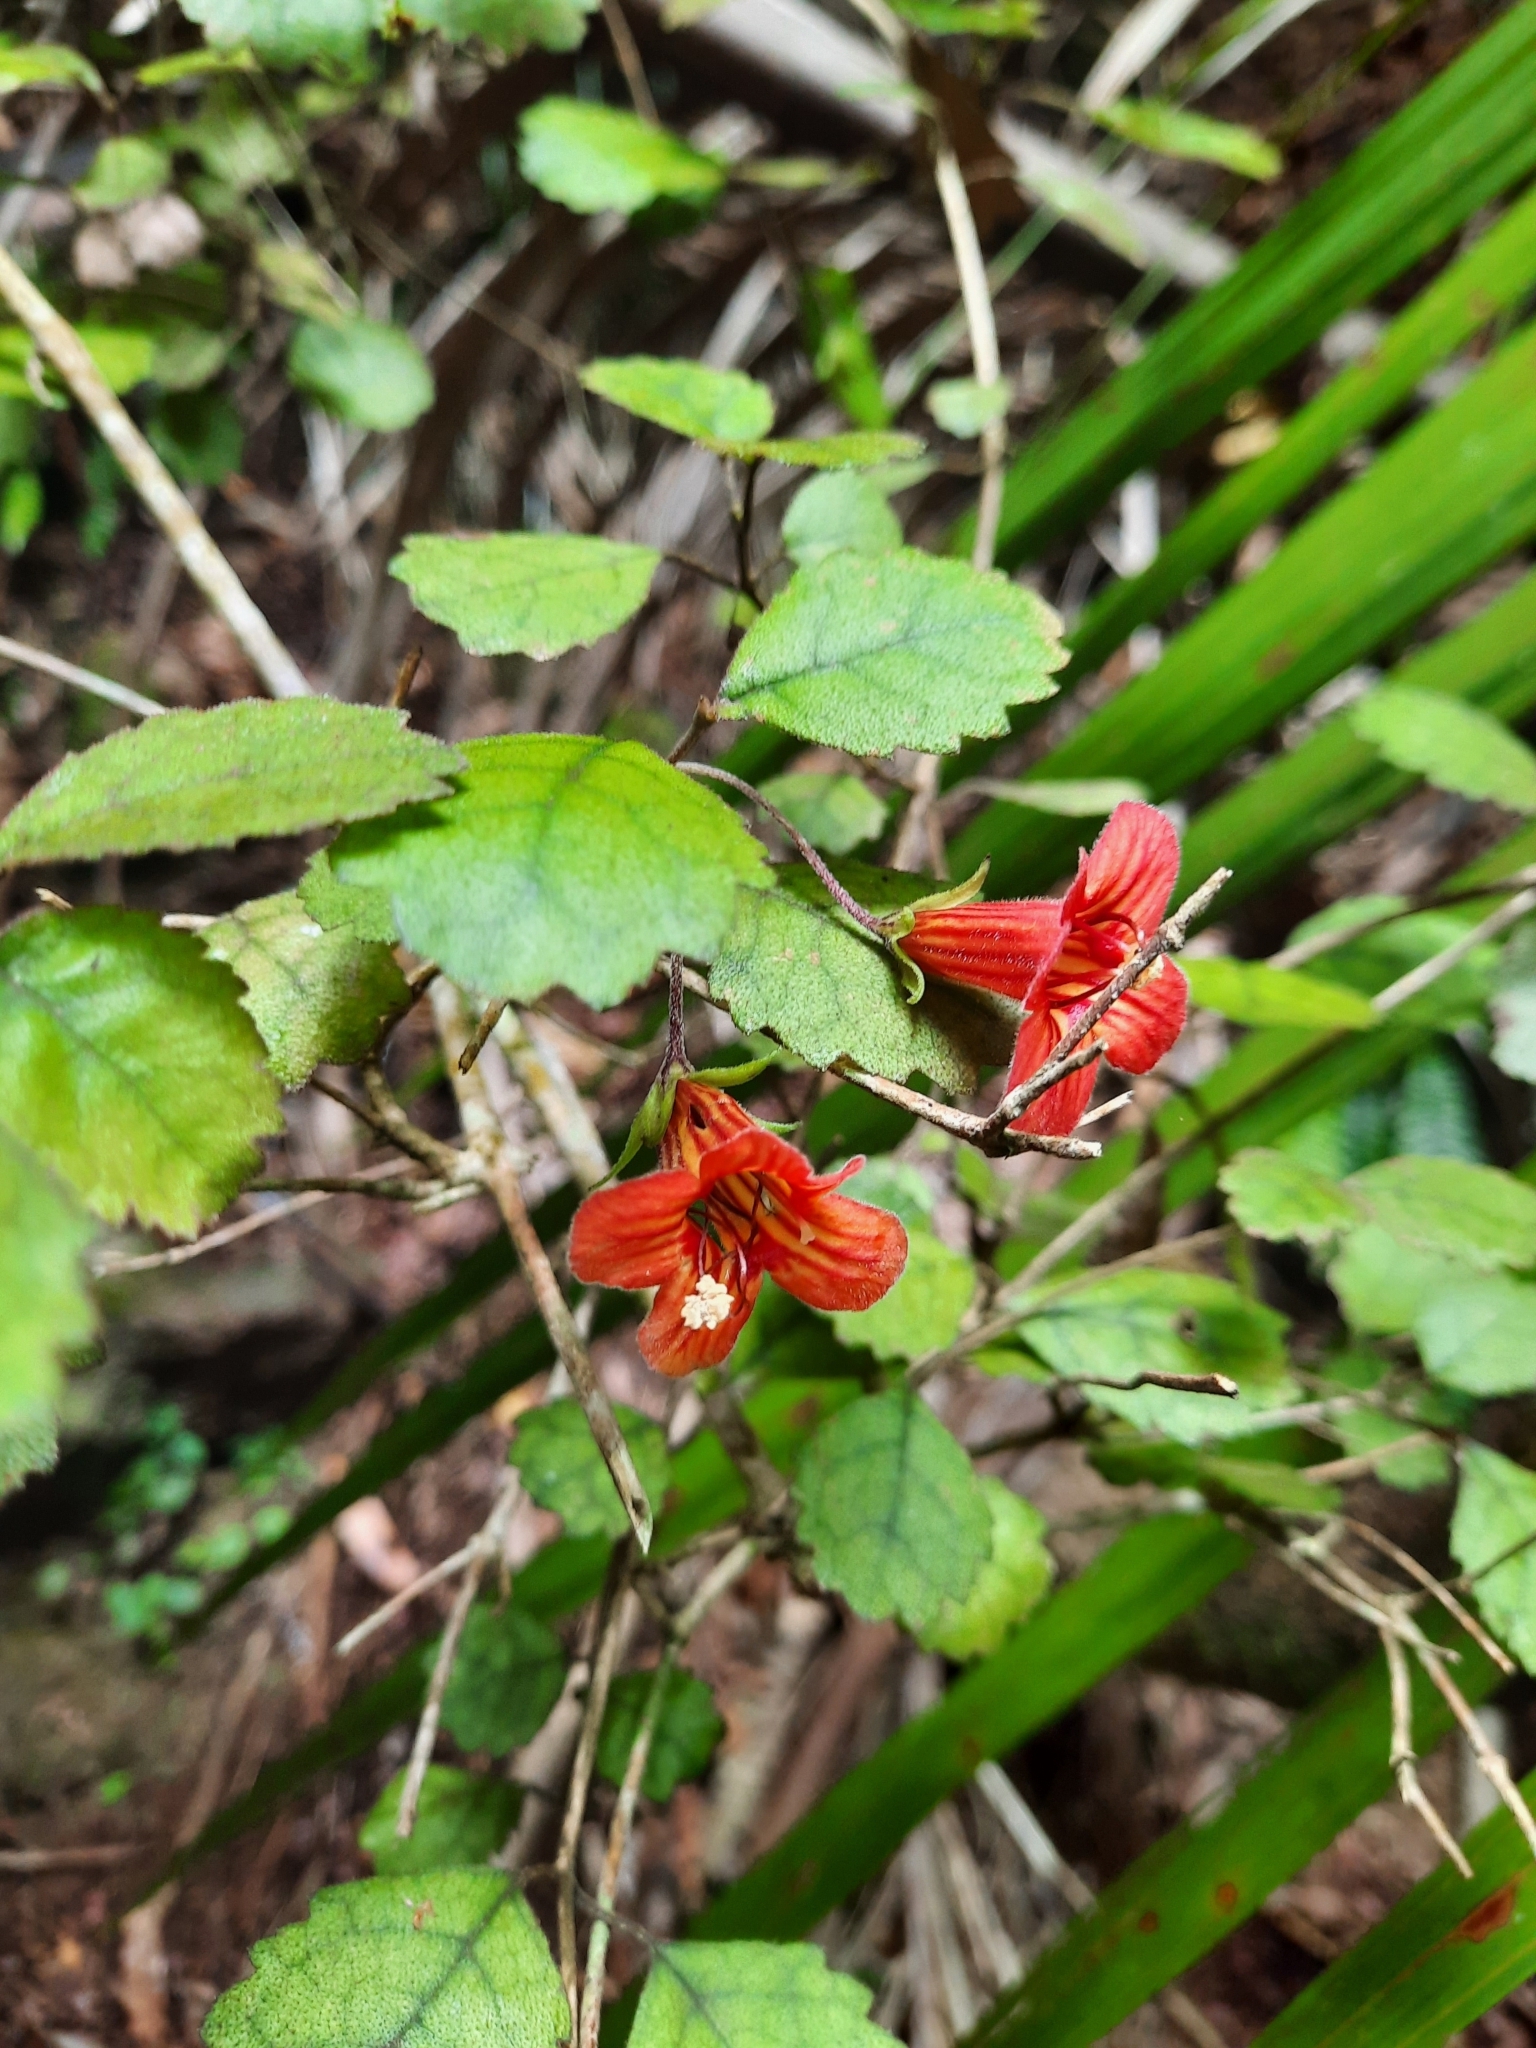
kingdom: Plantae
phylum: Tracheophyta
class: Magnoliopsida
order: Lamiales
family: Gesneriaceae
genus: Rhabdothamnus
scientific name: Rhabdothamnus solandri
